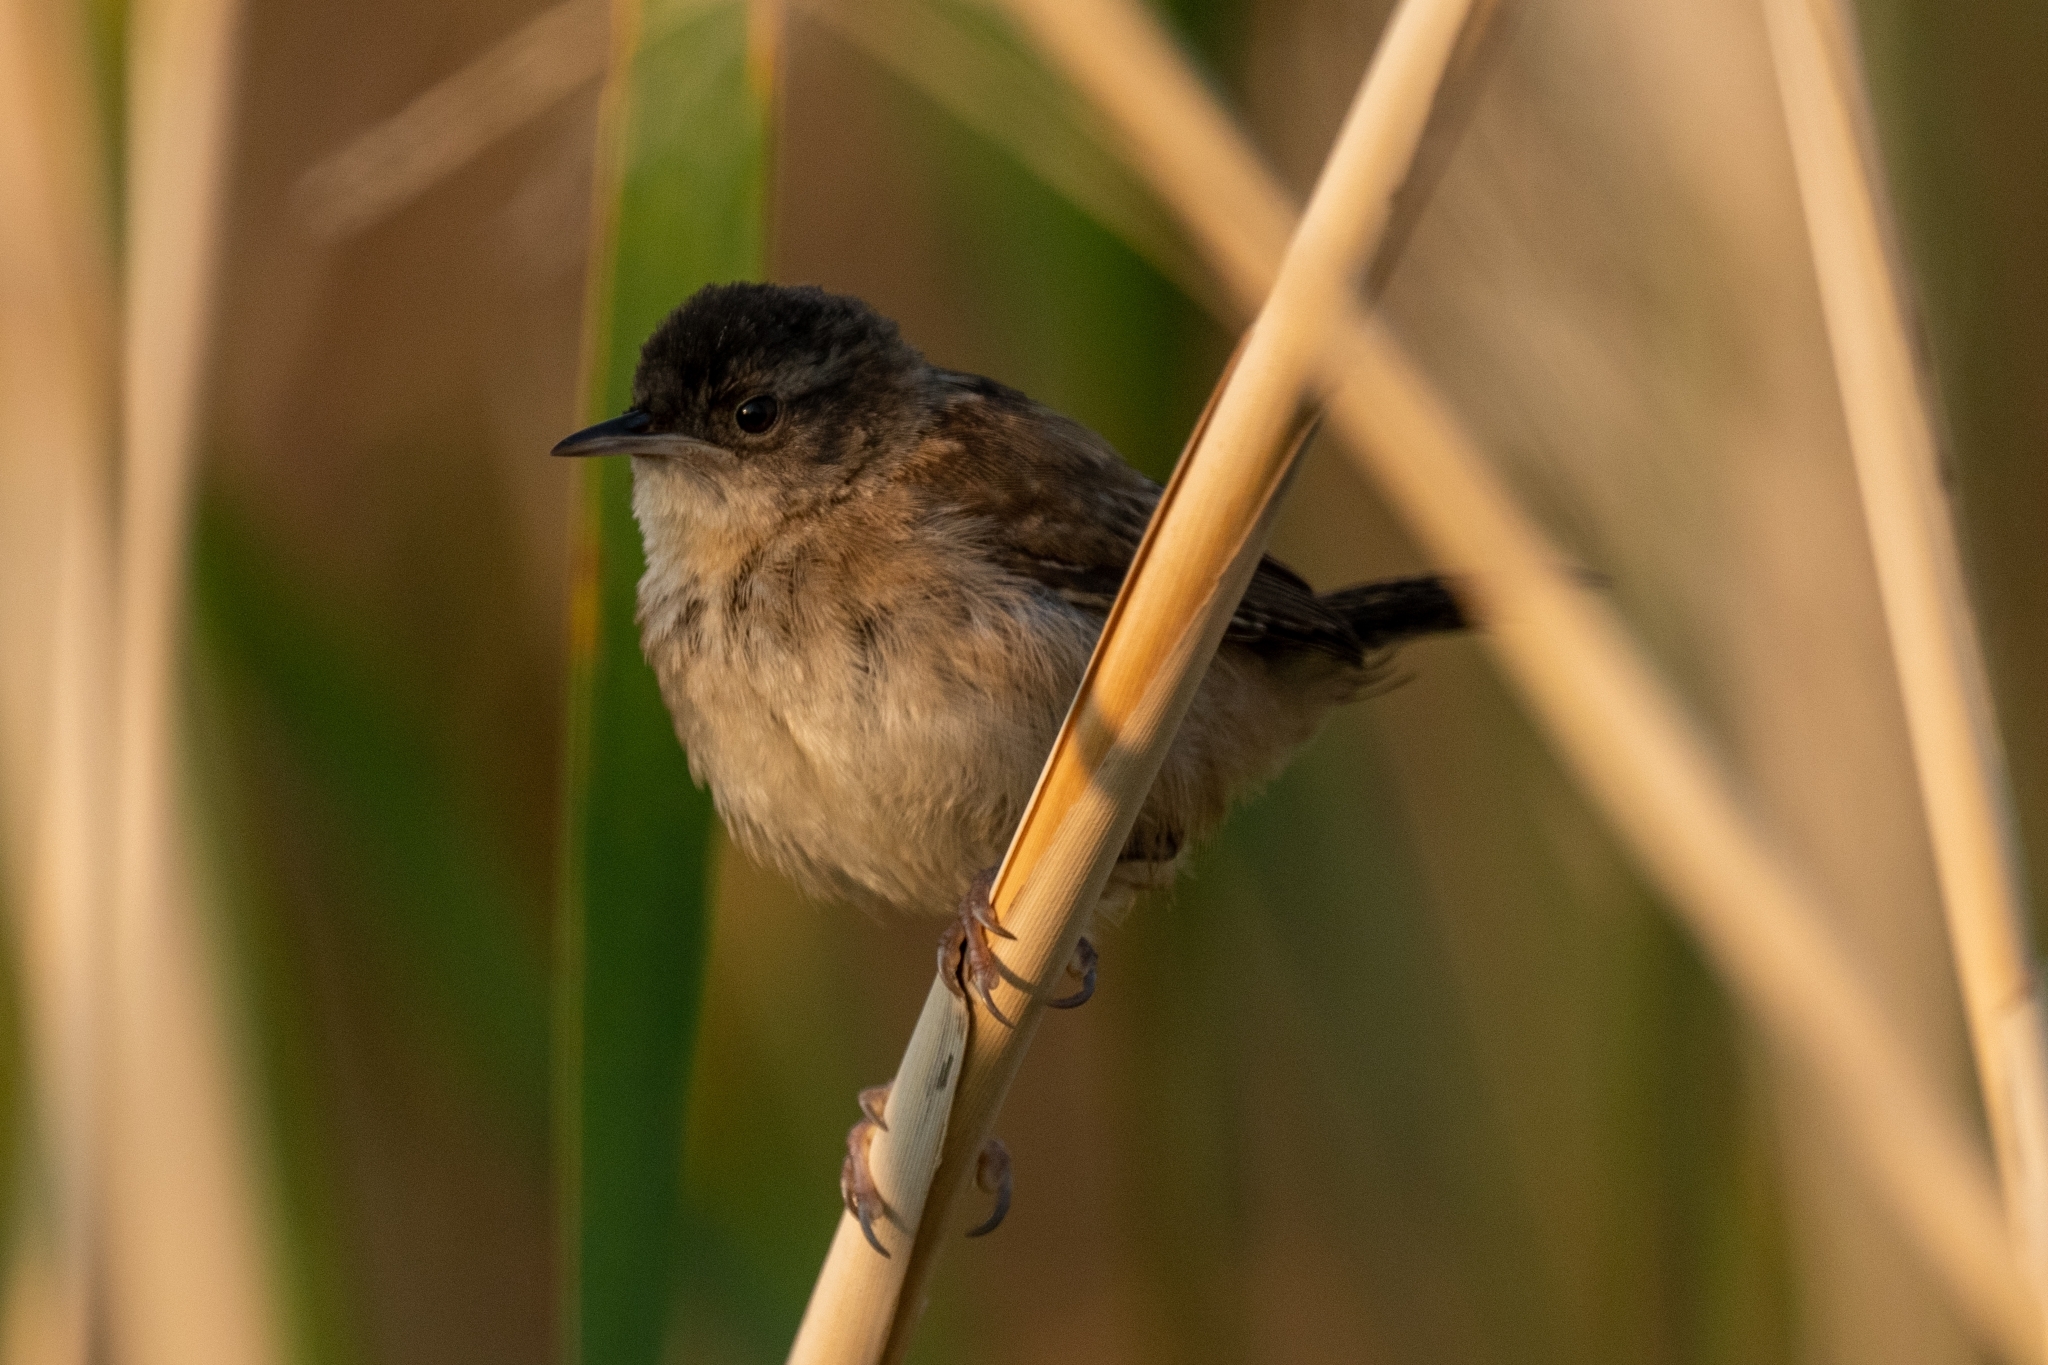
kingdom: Animalia
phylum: Chordata
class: Aves
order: Passeriformes
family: Troglodytidae
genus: Cistothorus
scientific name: Cistothorus palustris
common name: Marsh wren
